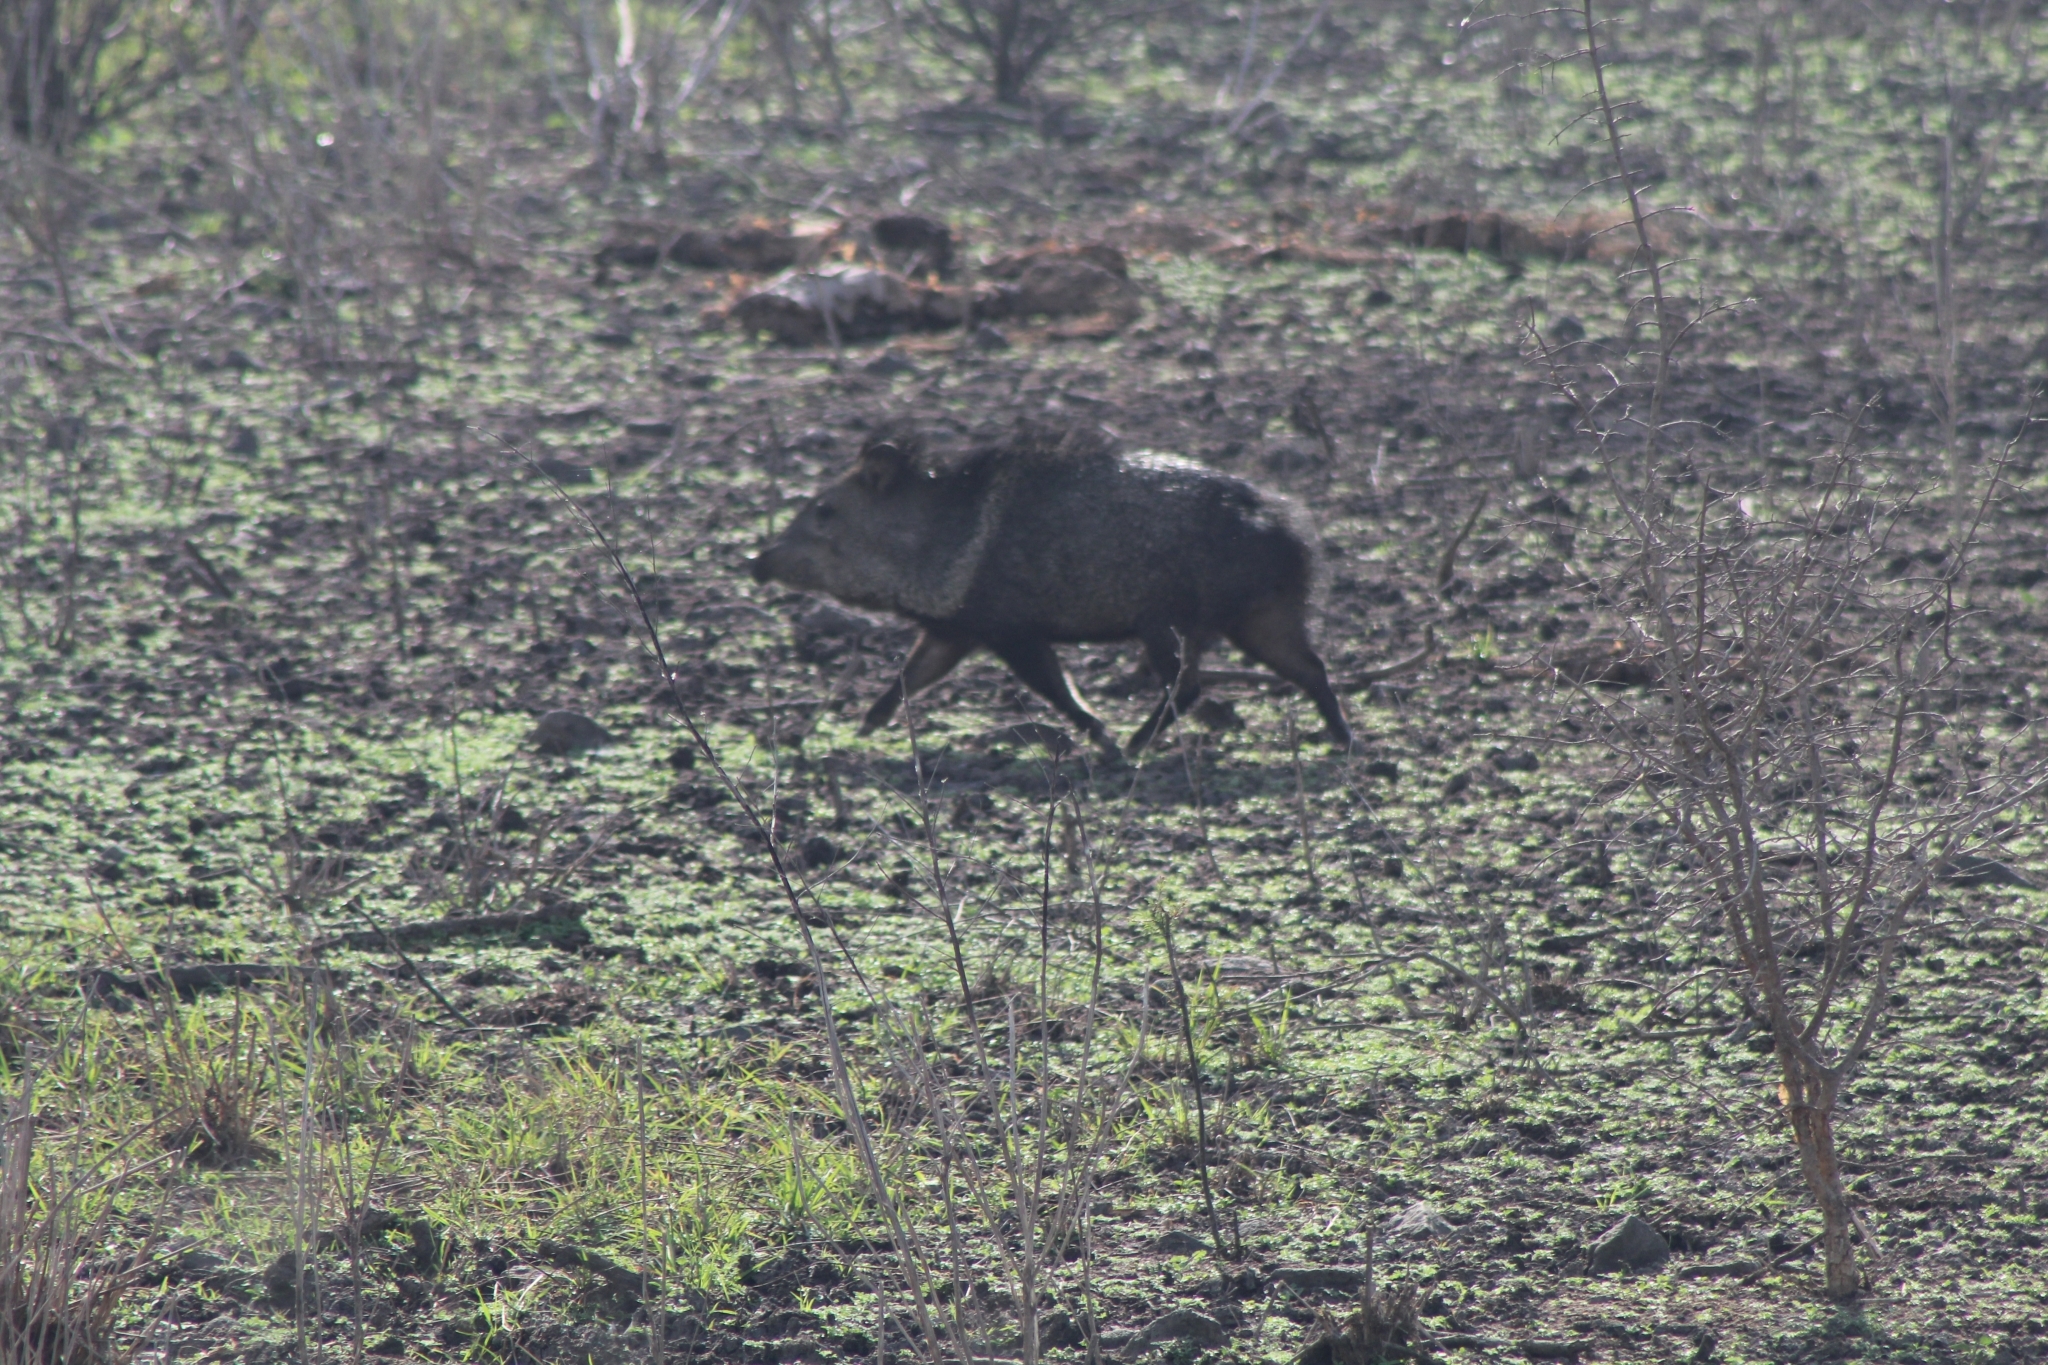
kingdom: Animalia
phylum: Chordata
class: Mammalia
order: Artiodactyla
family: Tayassuidae
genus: Pecari
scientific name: Pecari tajacu
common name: Collared peccary
